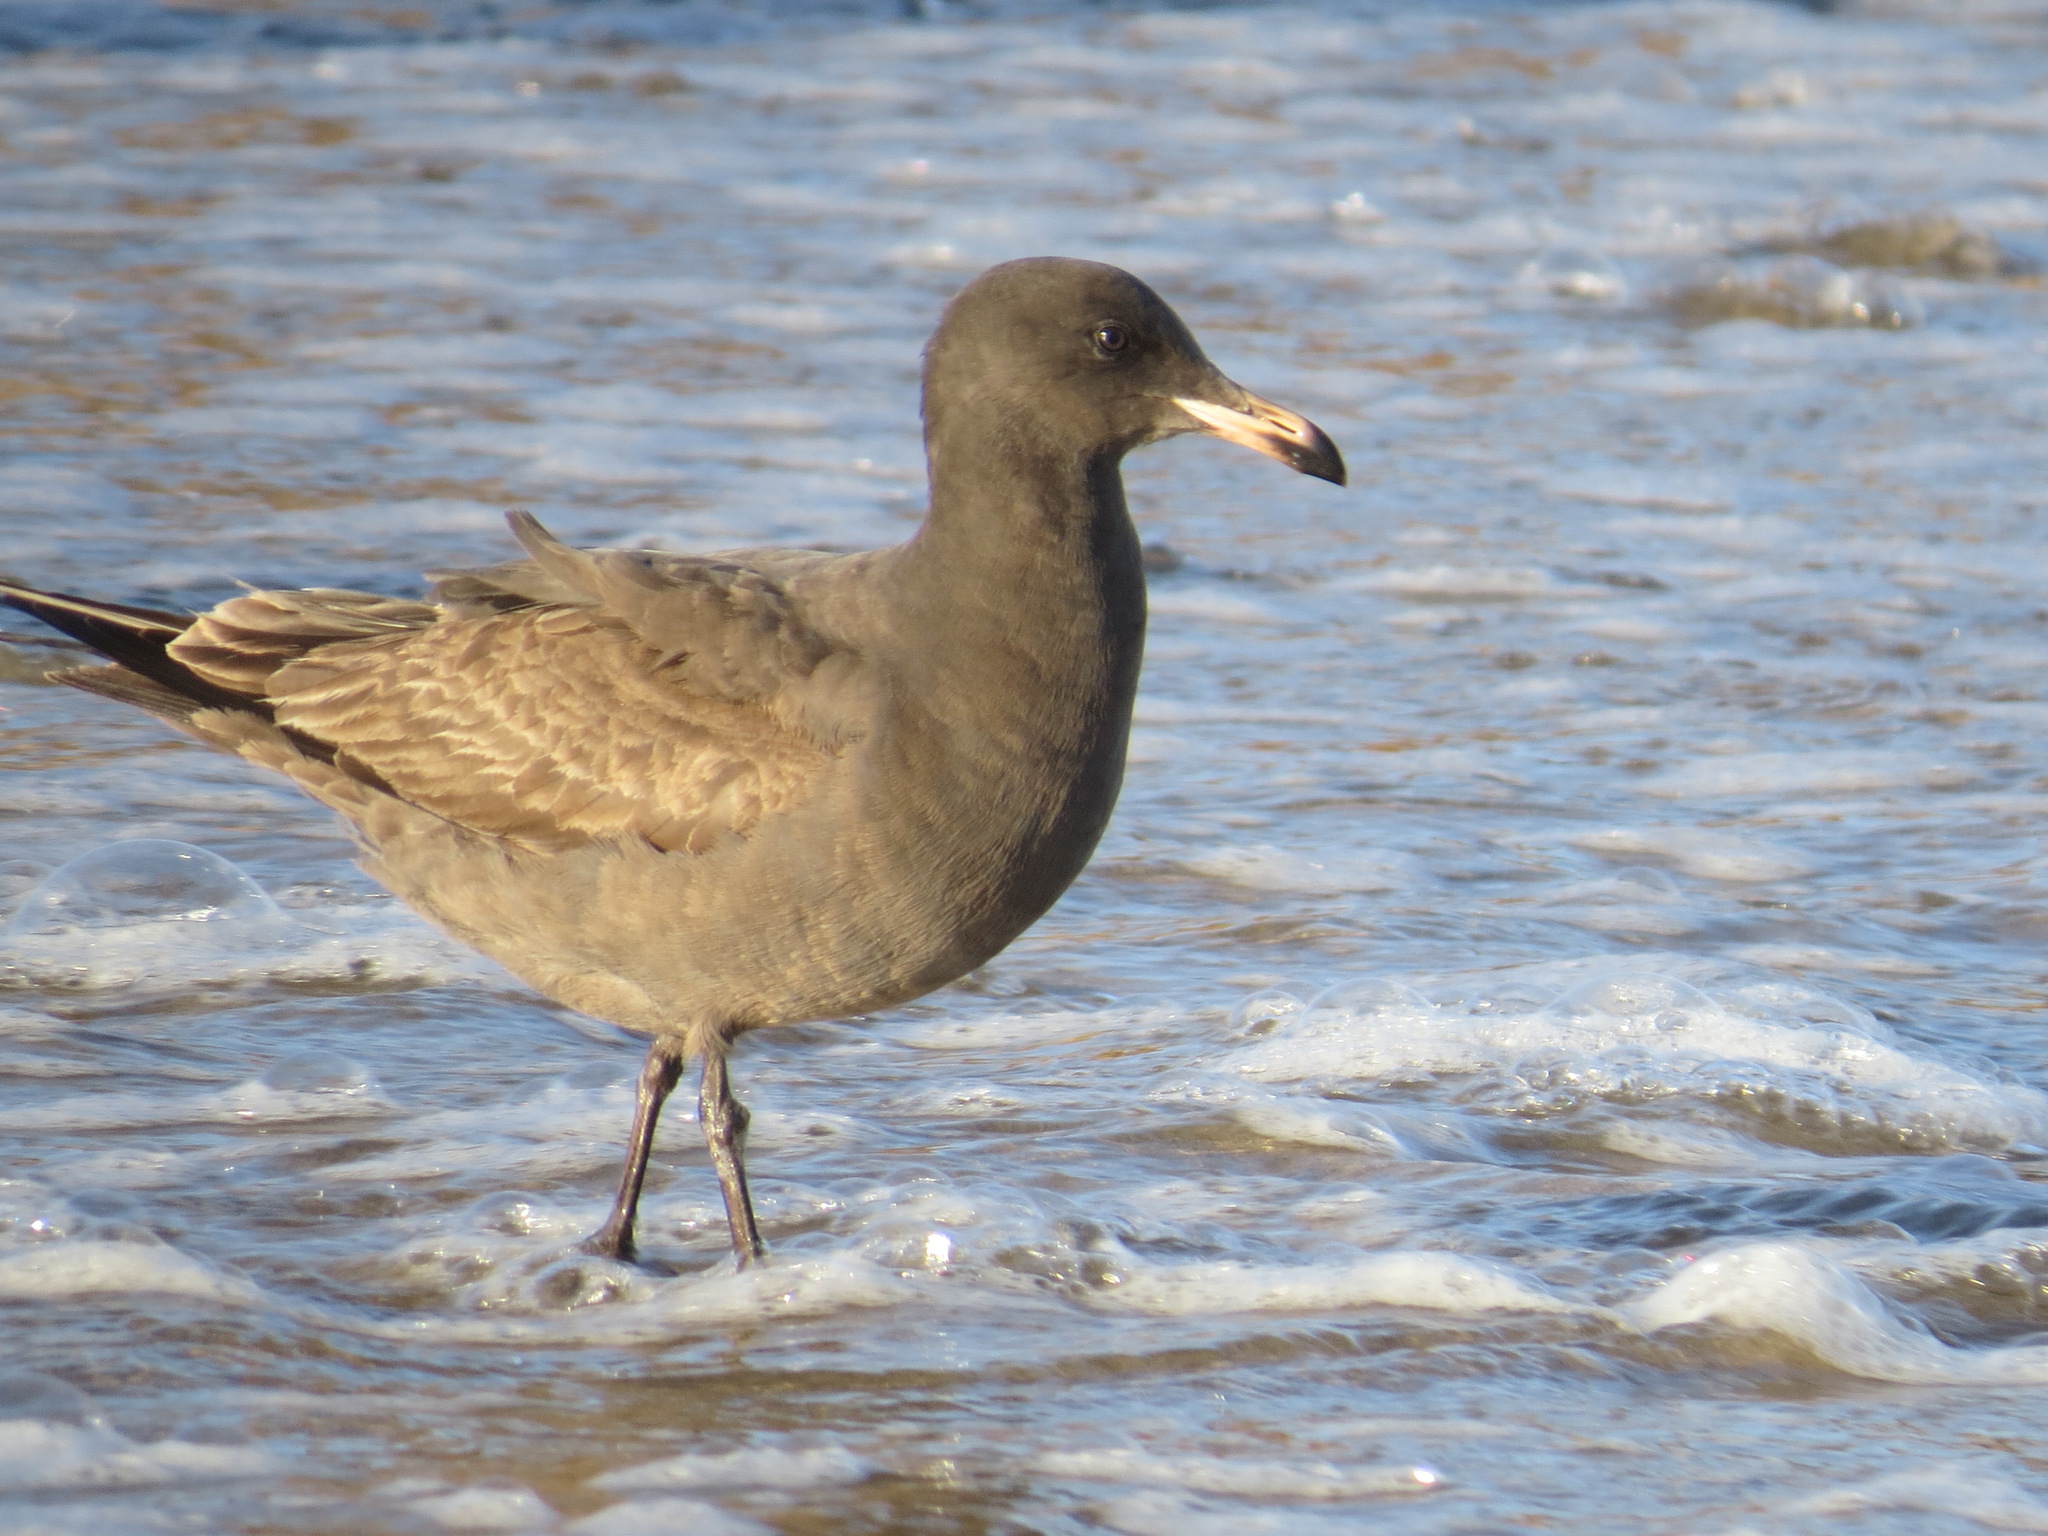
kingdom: Animalia
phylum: Chordata
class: Aves
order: Charadriiformes
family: Laridae
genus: Larus
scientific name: Larus heermanni
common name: Heermann's gull
